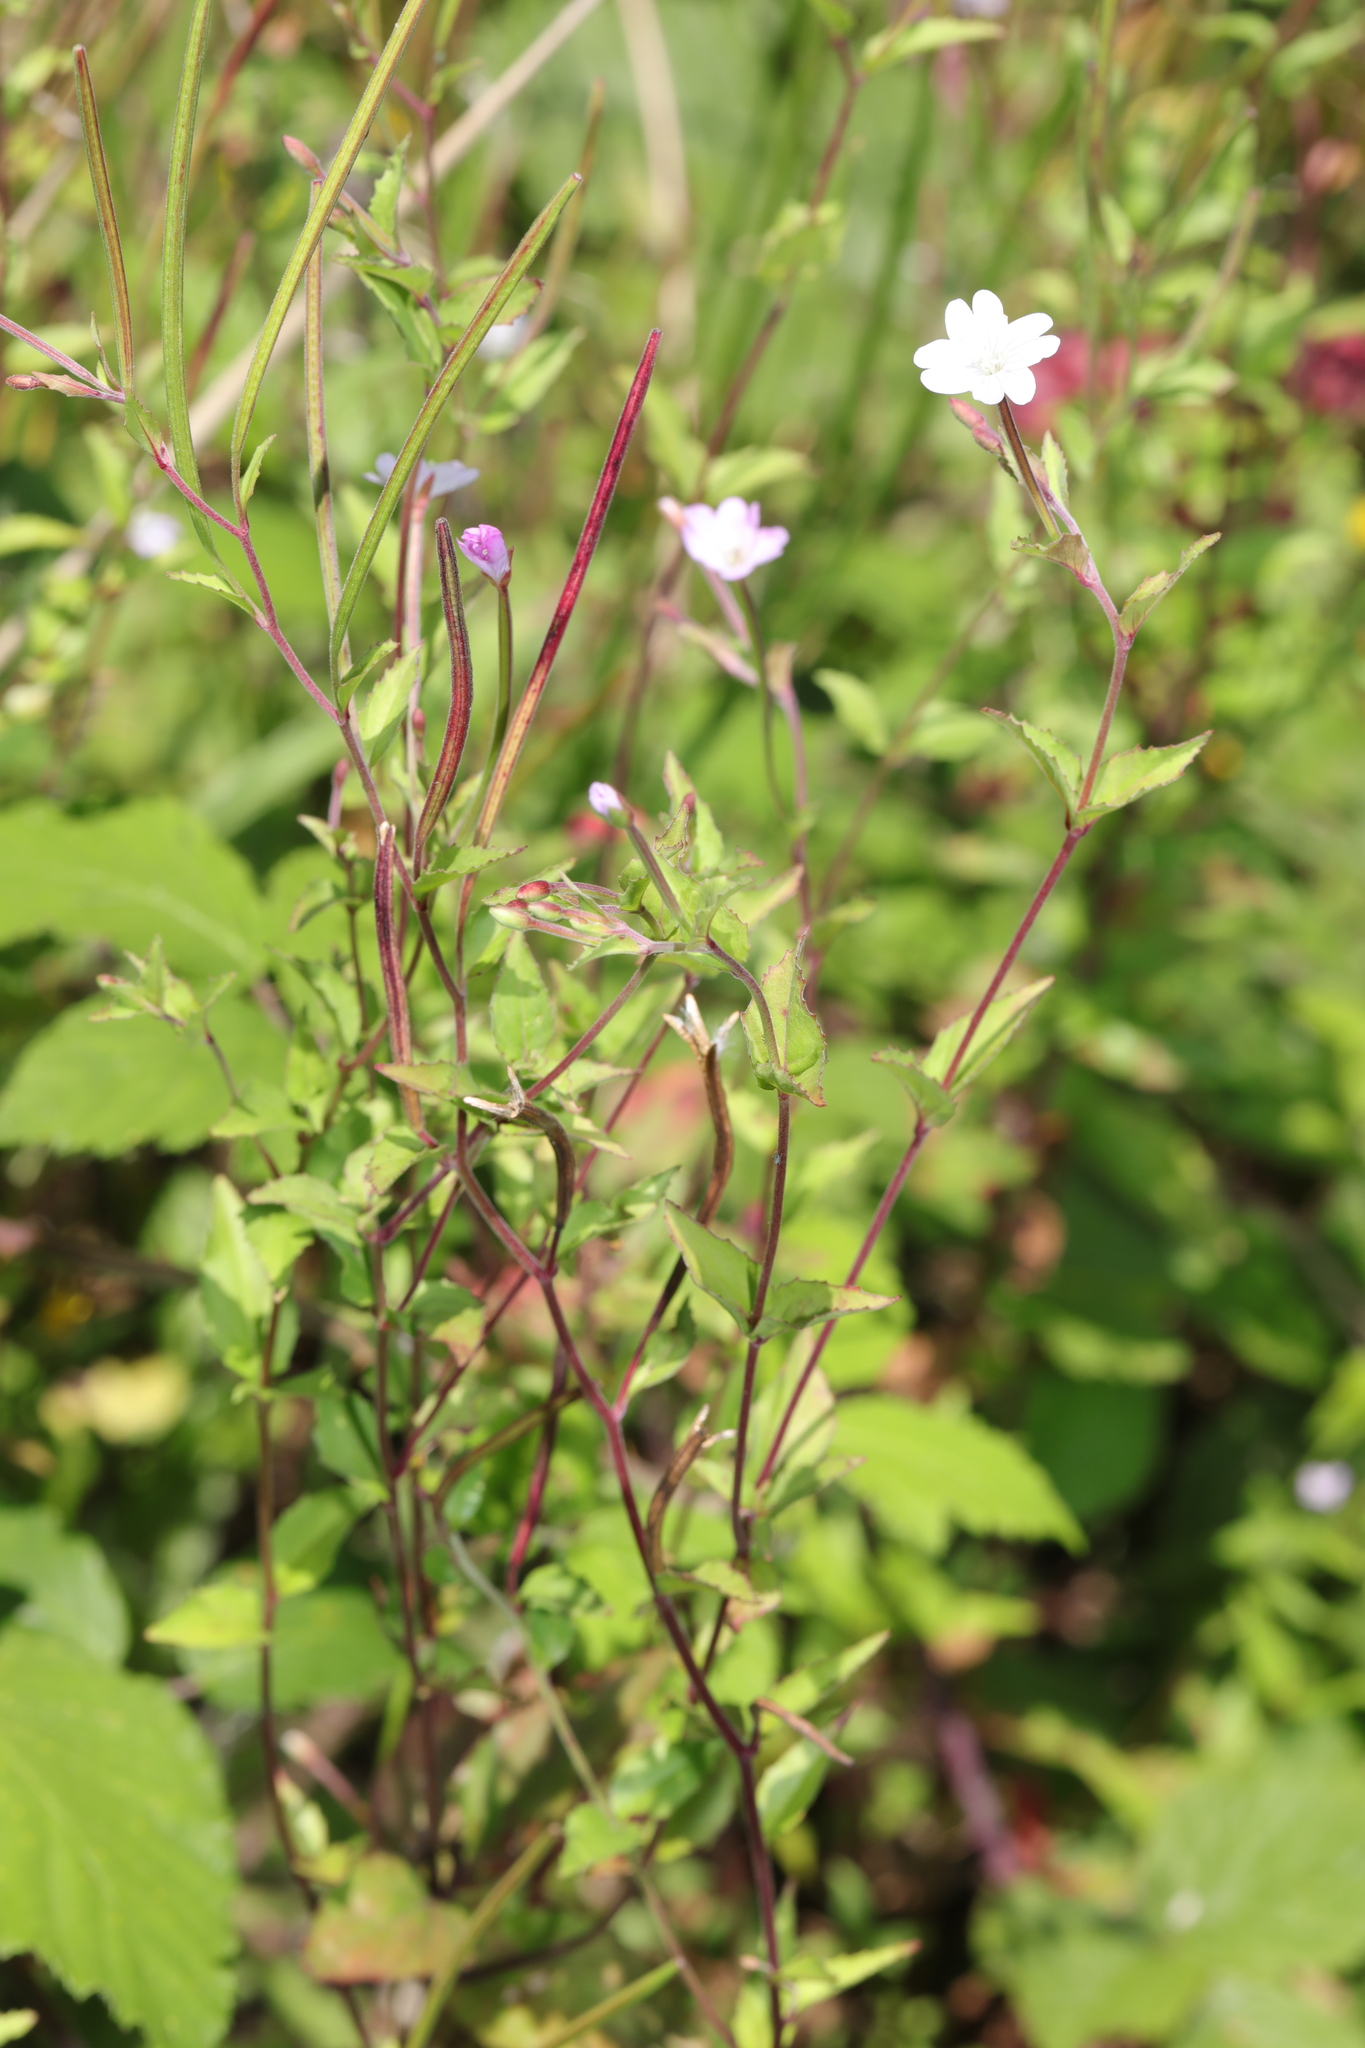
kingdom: Plantae
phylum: Tracheophyta
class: Magnoliopsida
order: Myrtales
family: Onagraceae
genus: Epilobium
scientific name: Epilobium montanum
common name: Broad-leaved willowherb
